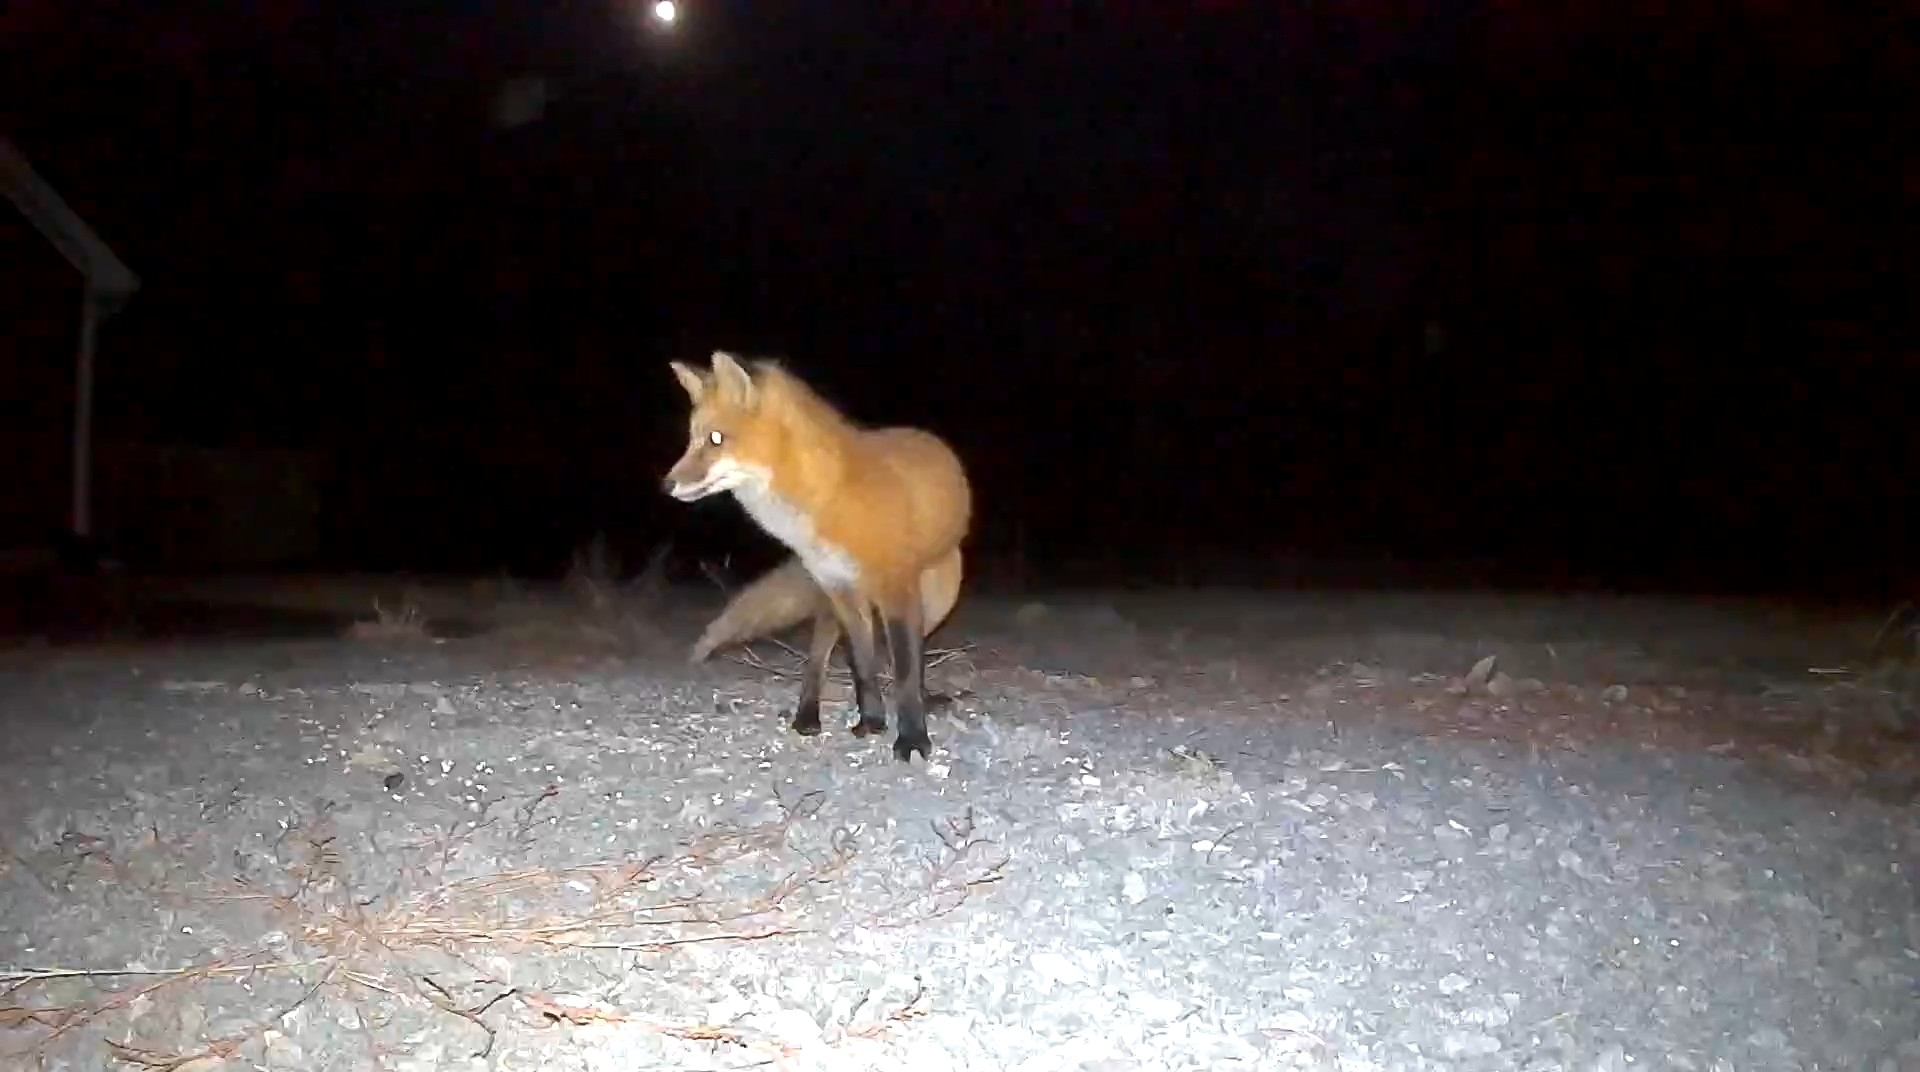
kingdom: Animalia
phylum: Chordata
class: Mammalia
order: Carnivora
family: Canidae
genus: Vulpes
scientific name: Vulpes vulpes
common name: Red fox
